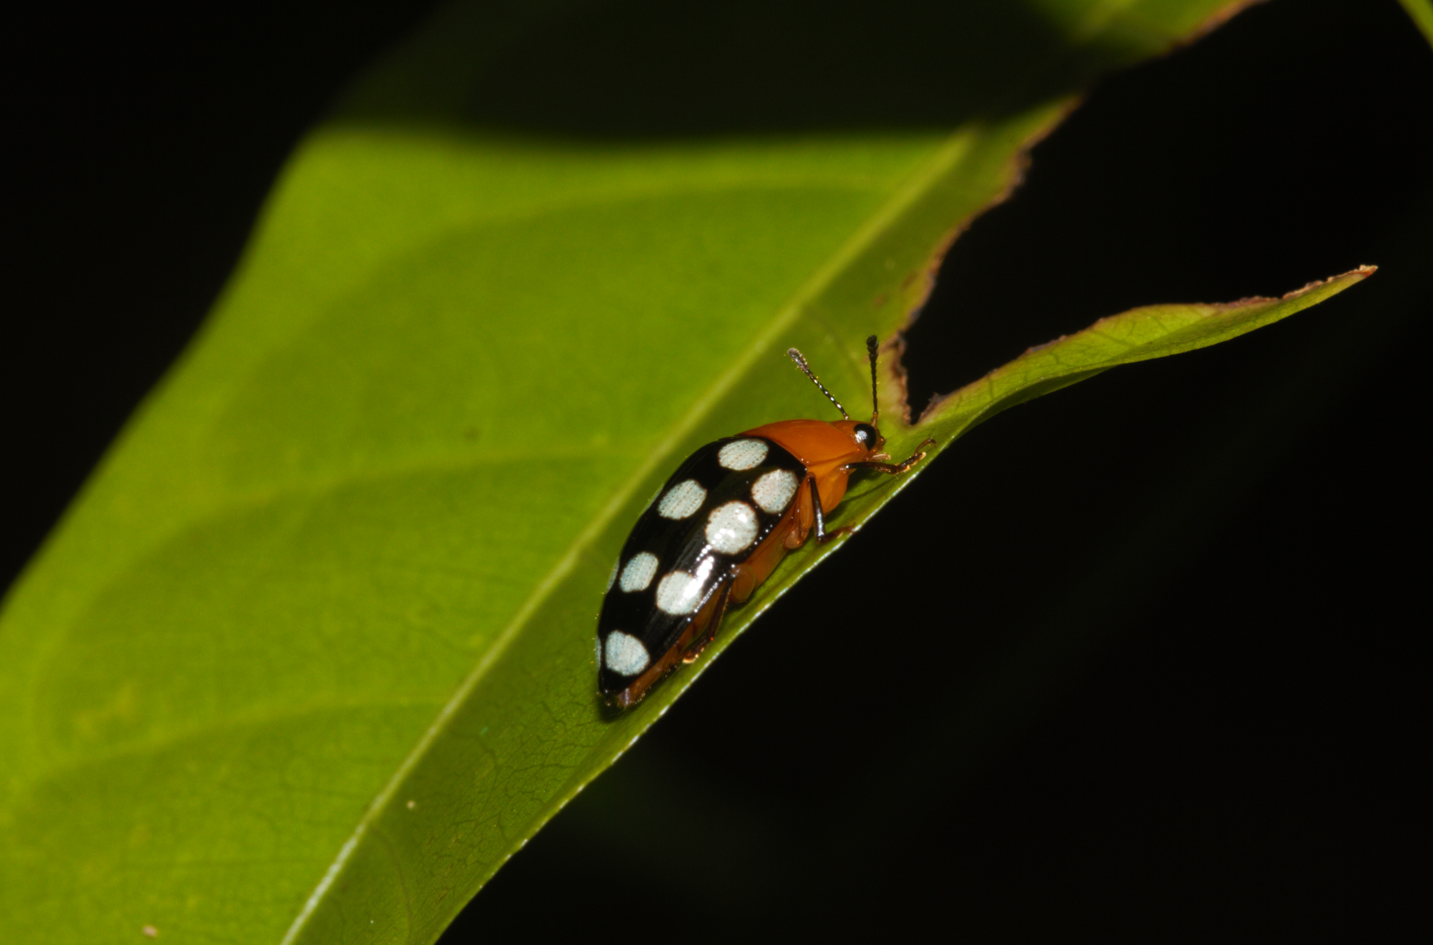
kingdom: Animalia
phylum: Arthropoda
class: Insecta
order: Coleoptera
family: Erotylidae
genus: Iphiclus
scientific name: Iphiclus maculatus
